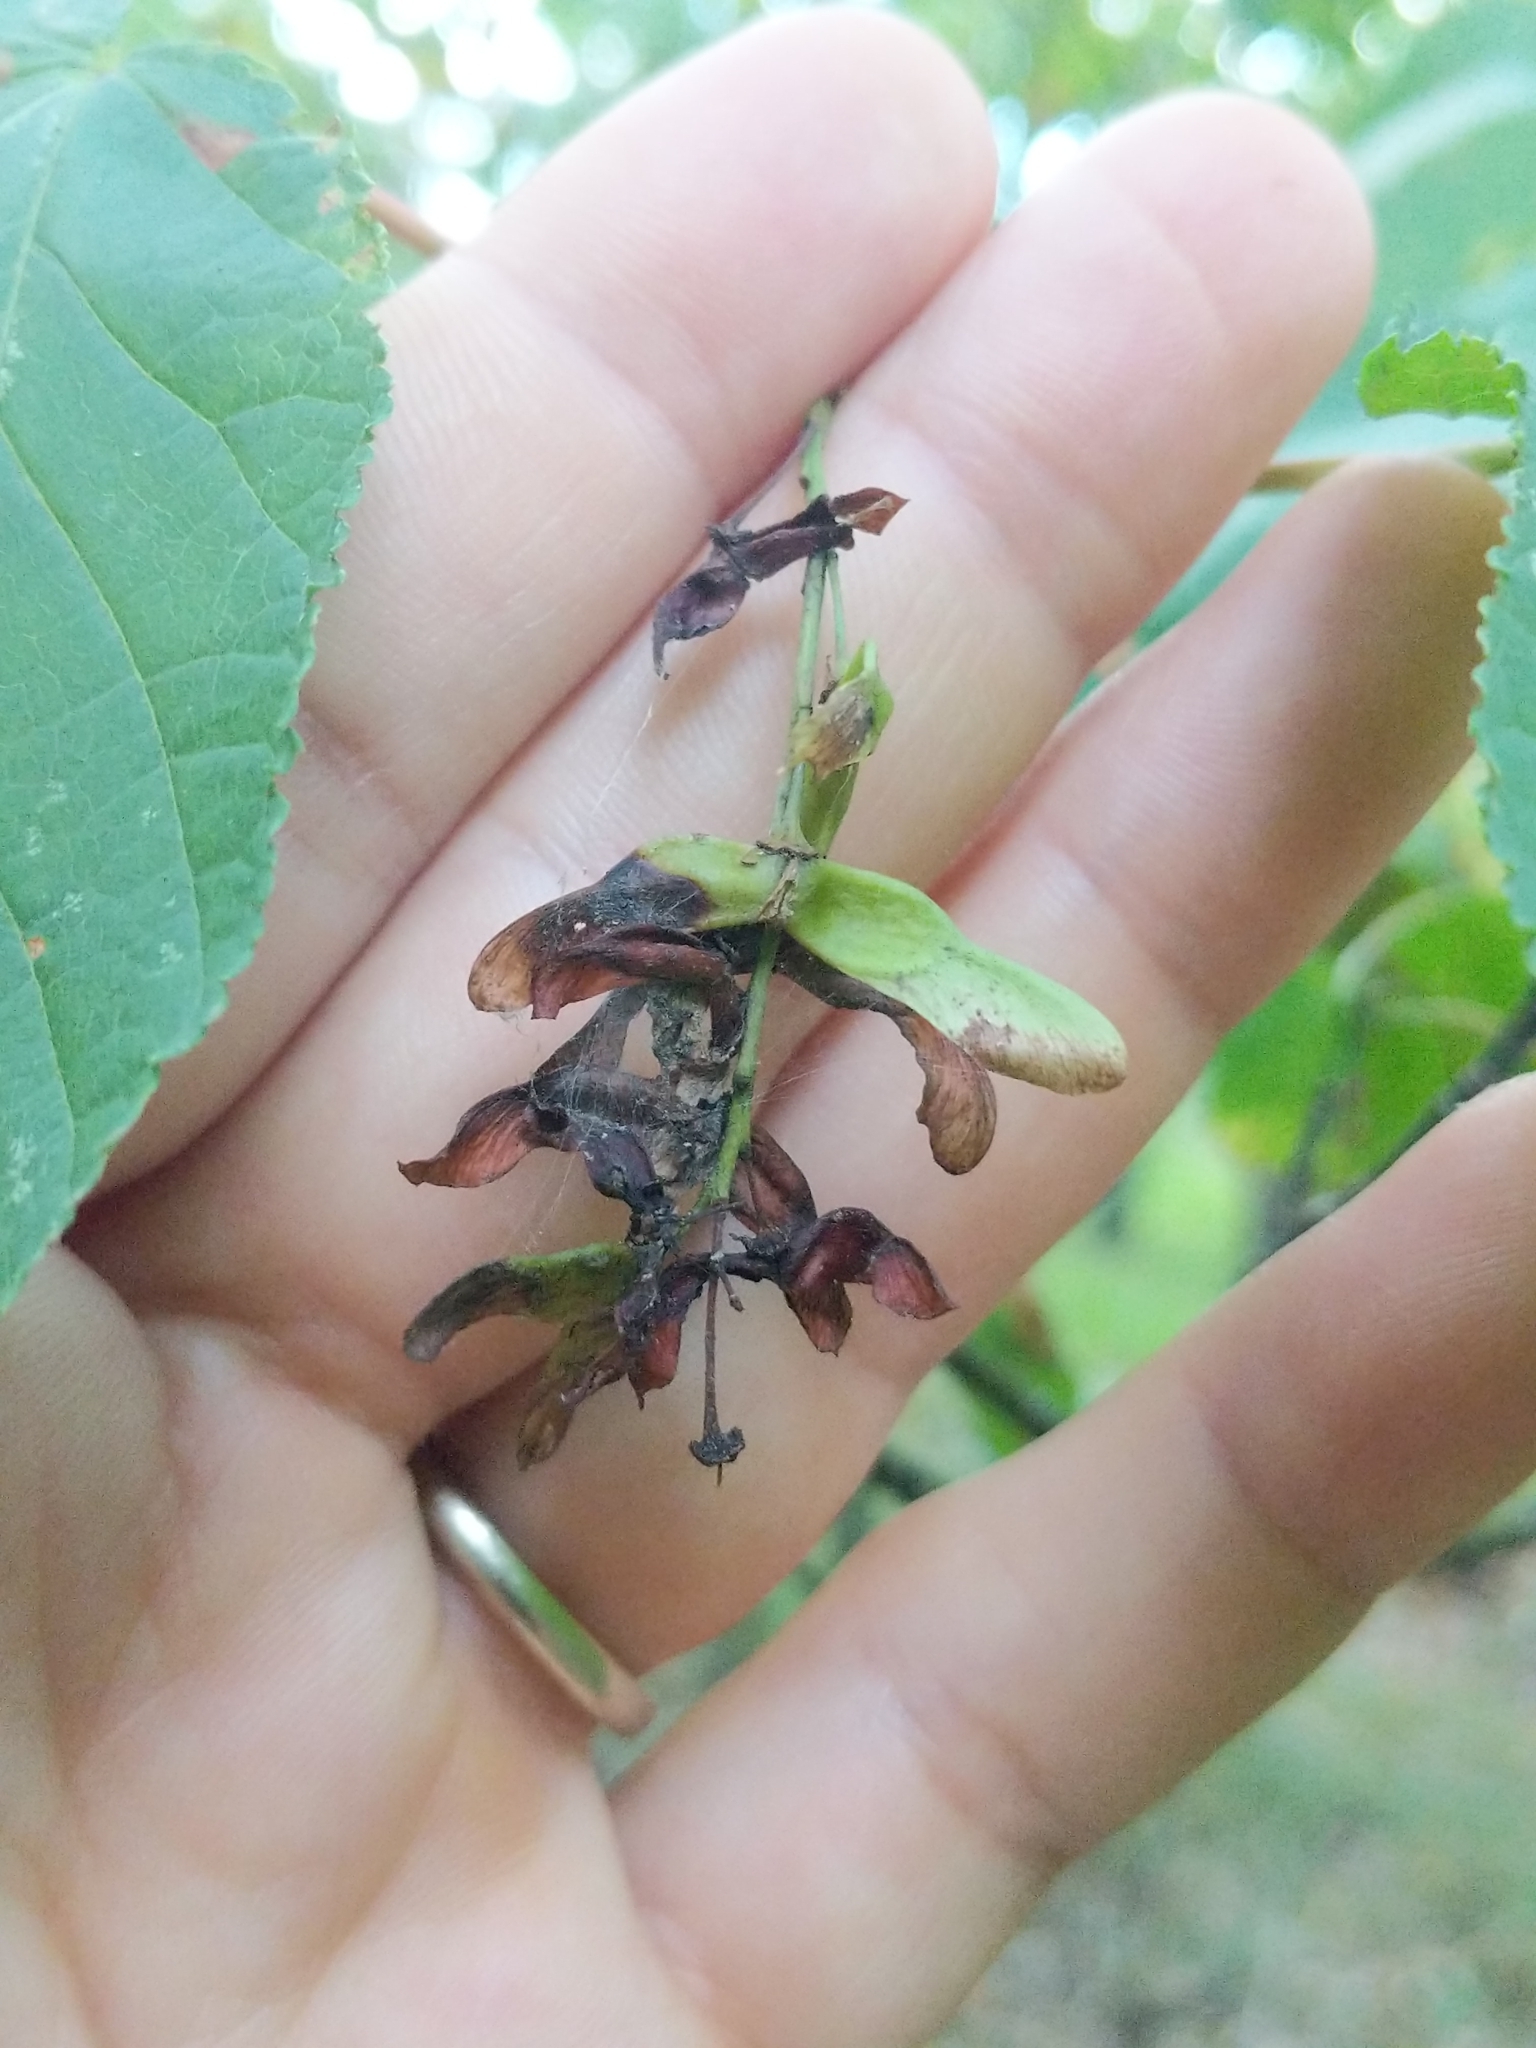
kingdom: Plantae
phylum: Tracheophyta
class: Magnoliopsida
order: Sapindales
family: Sapindaceae
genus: Acer
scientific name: Acer pensylvanicum
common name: Moosewood
